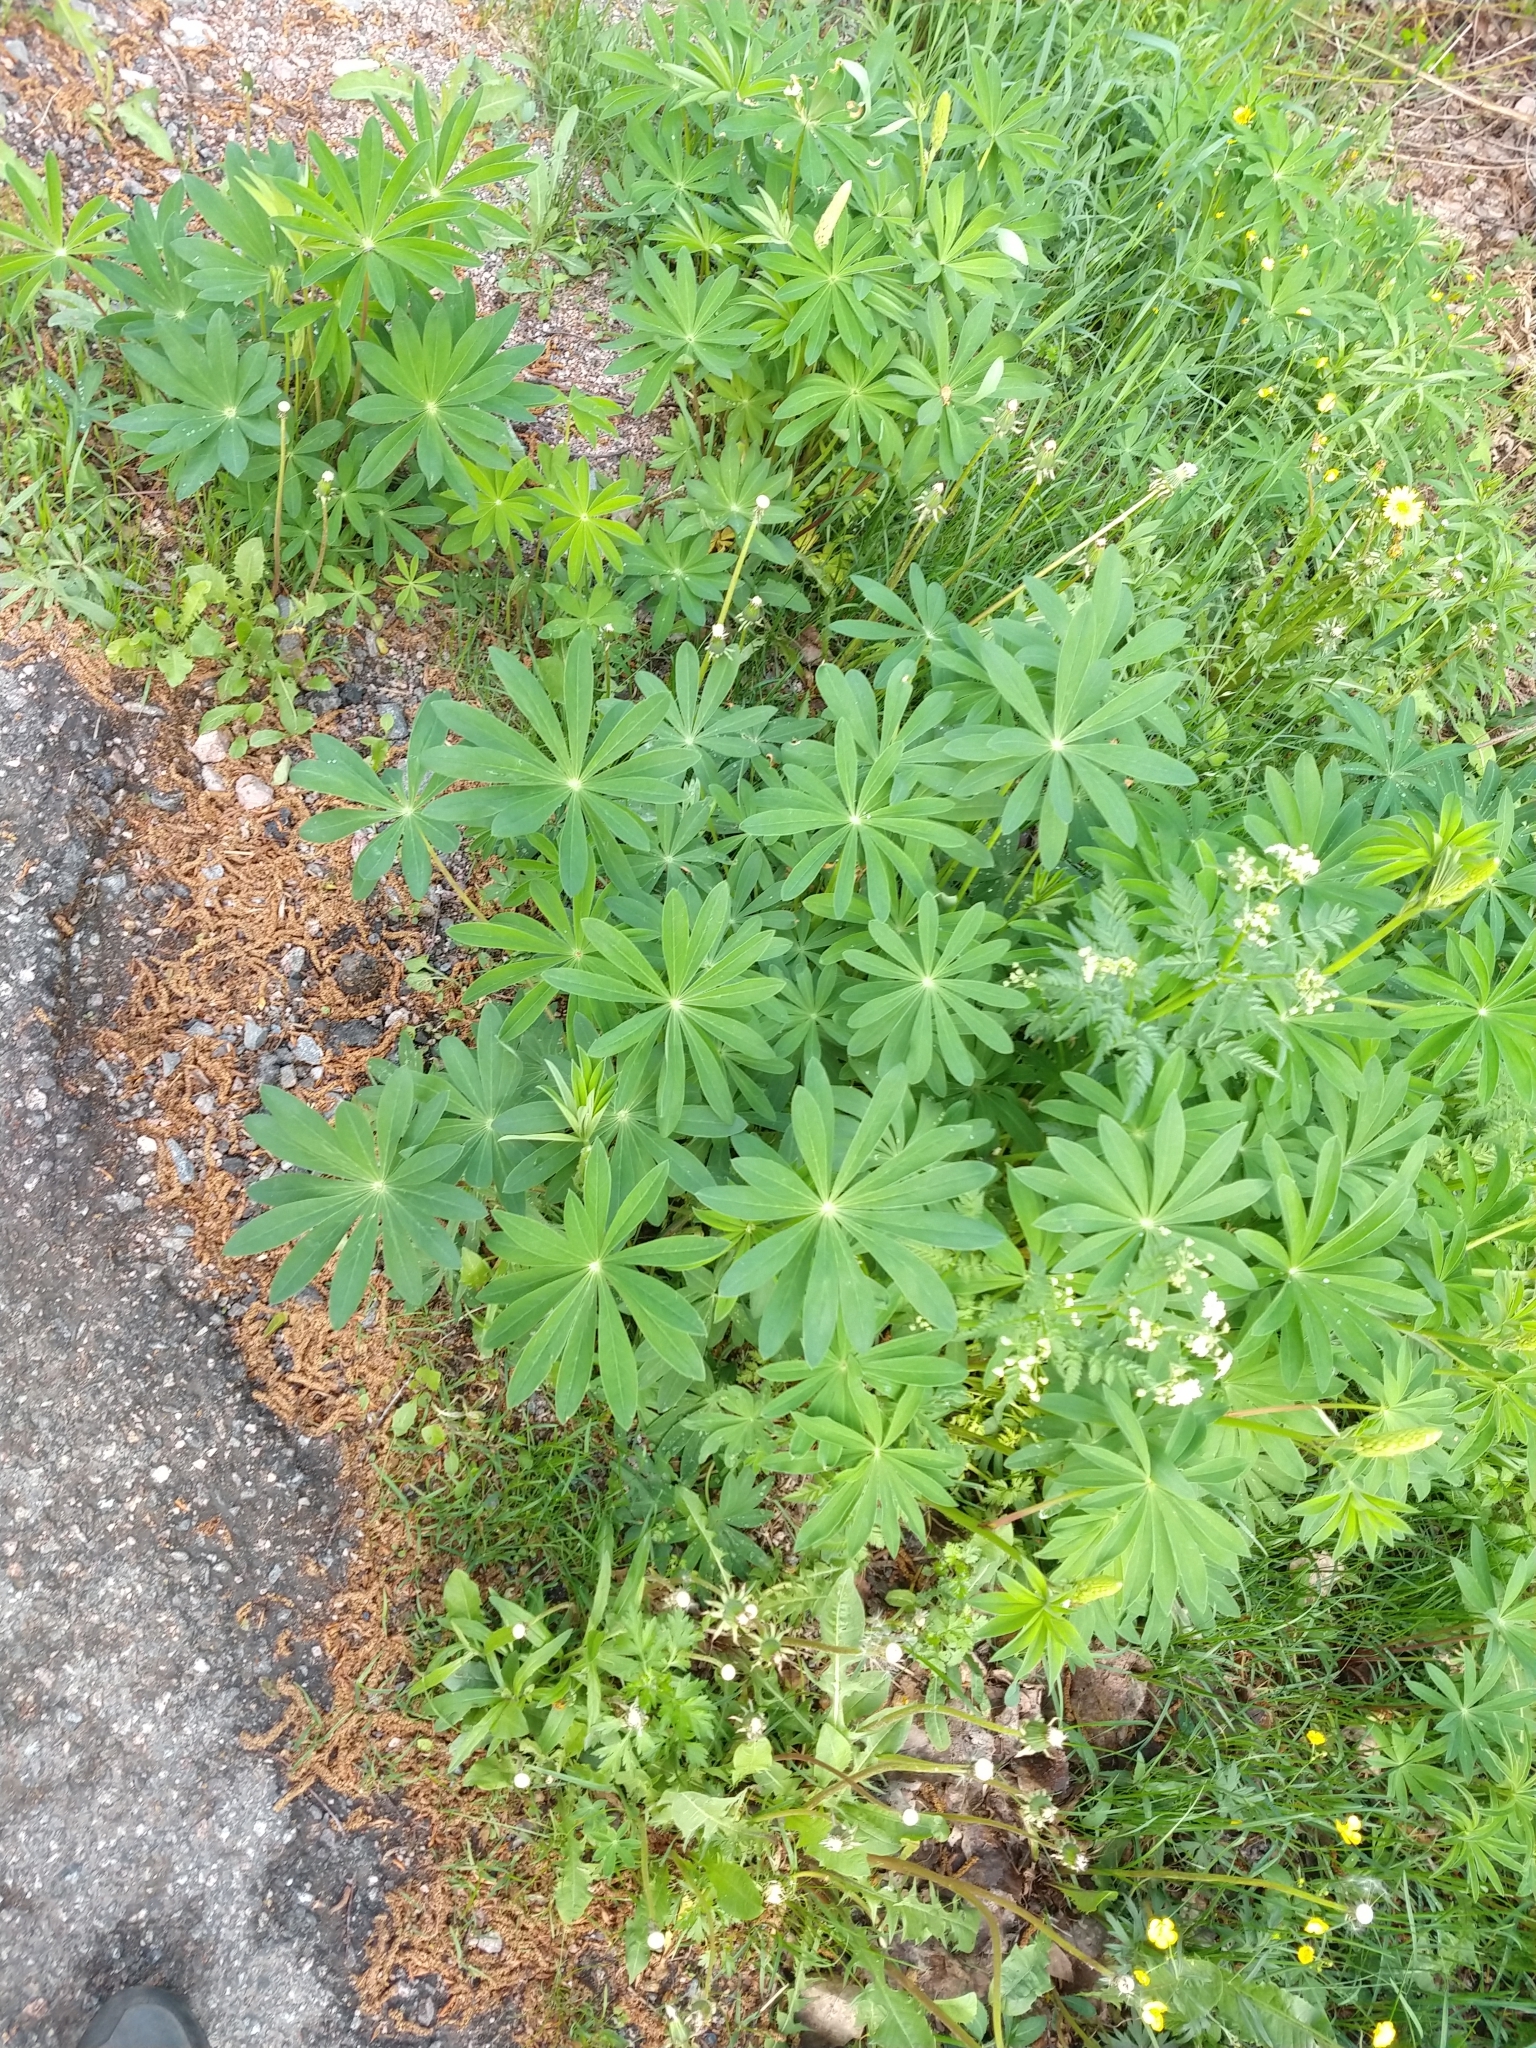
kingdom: Plantae
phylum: Tracheophyta
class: Magnoliopsida
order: Fabales
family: Fabaceae
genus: Lupinus
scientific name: Lupinus polyphyllus
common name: Garden lupin
